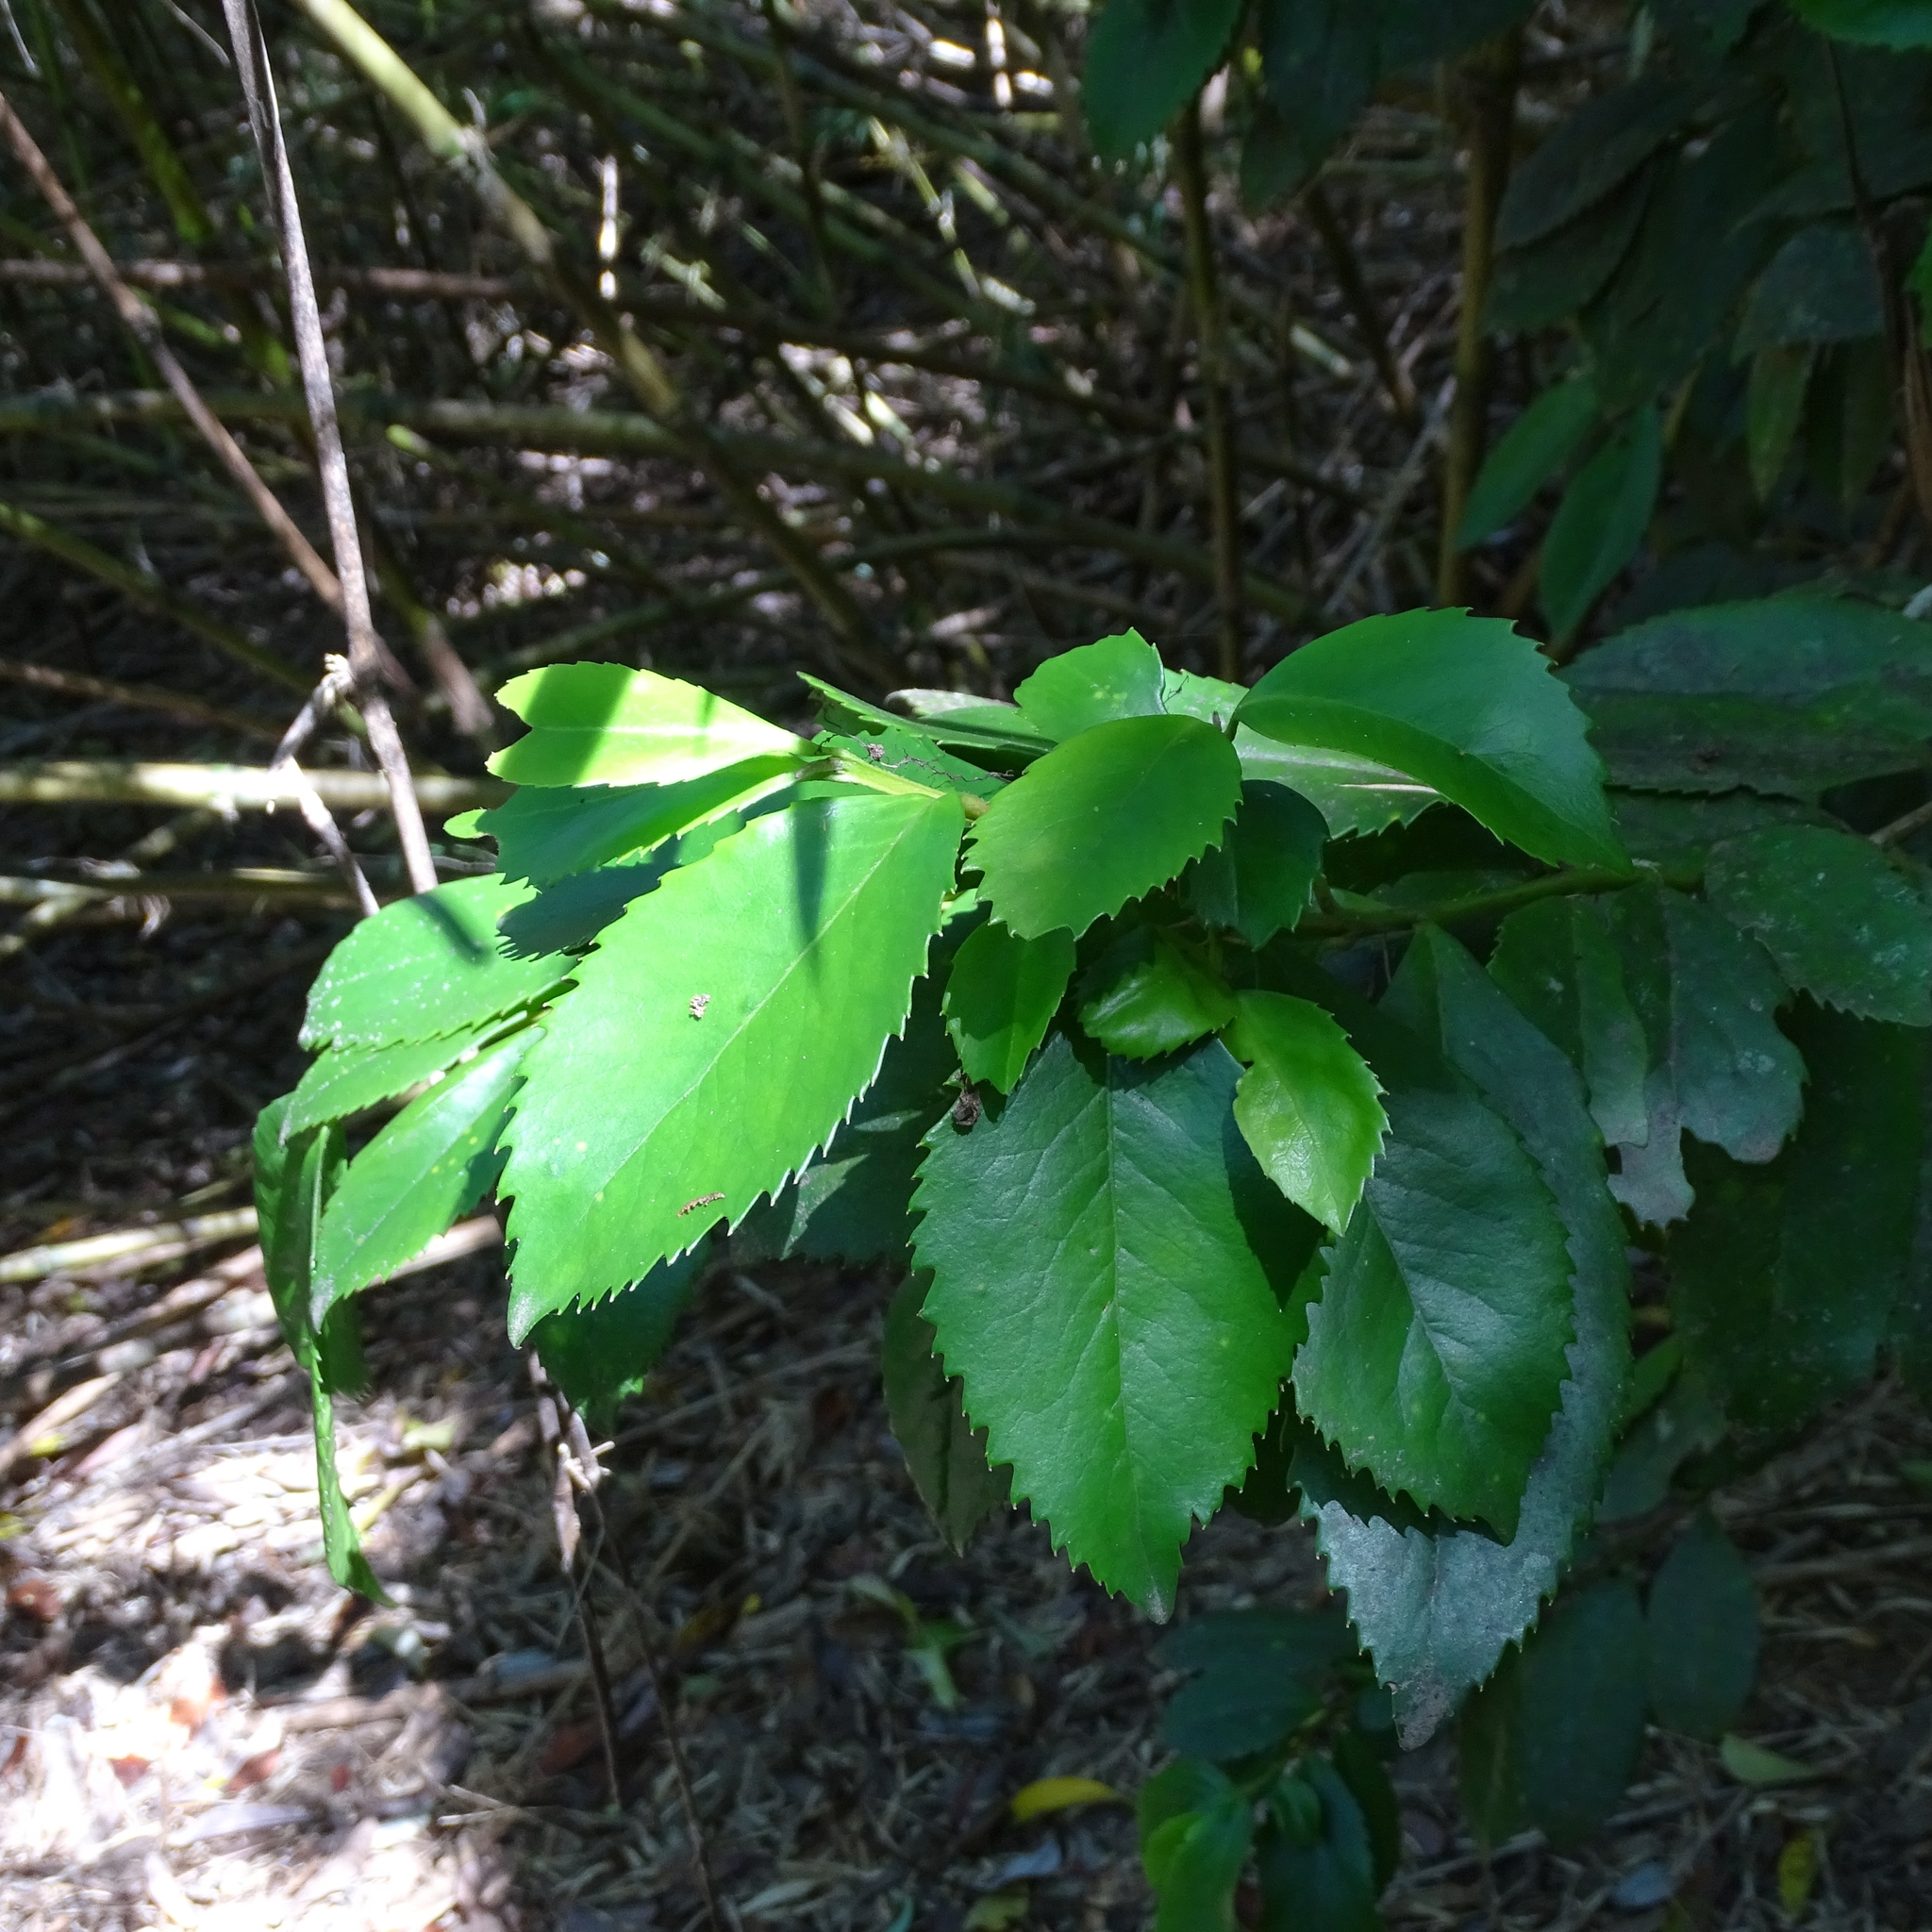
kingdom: Plantae
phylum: Tracheophyta
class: Magnoliopsida
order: Laurales
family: Atherospermataceae
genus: Laureliopsis
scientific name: Laureliopsis philippiana
